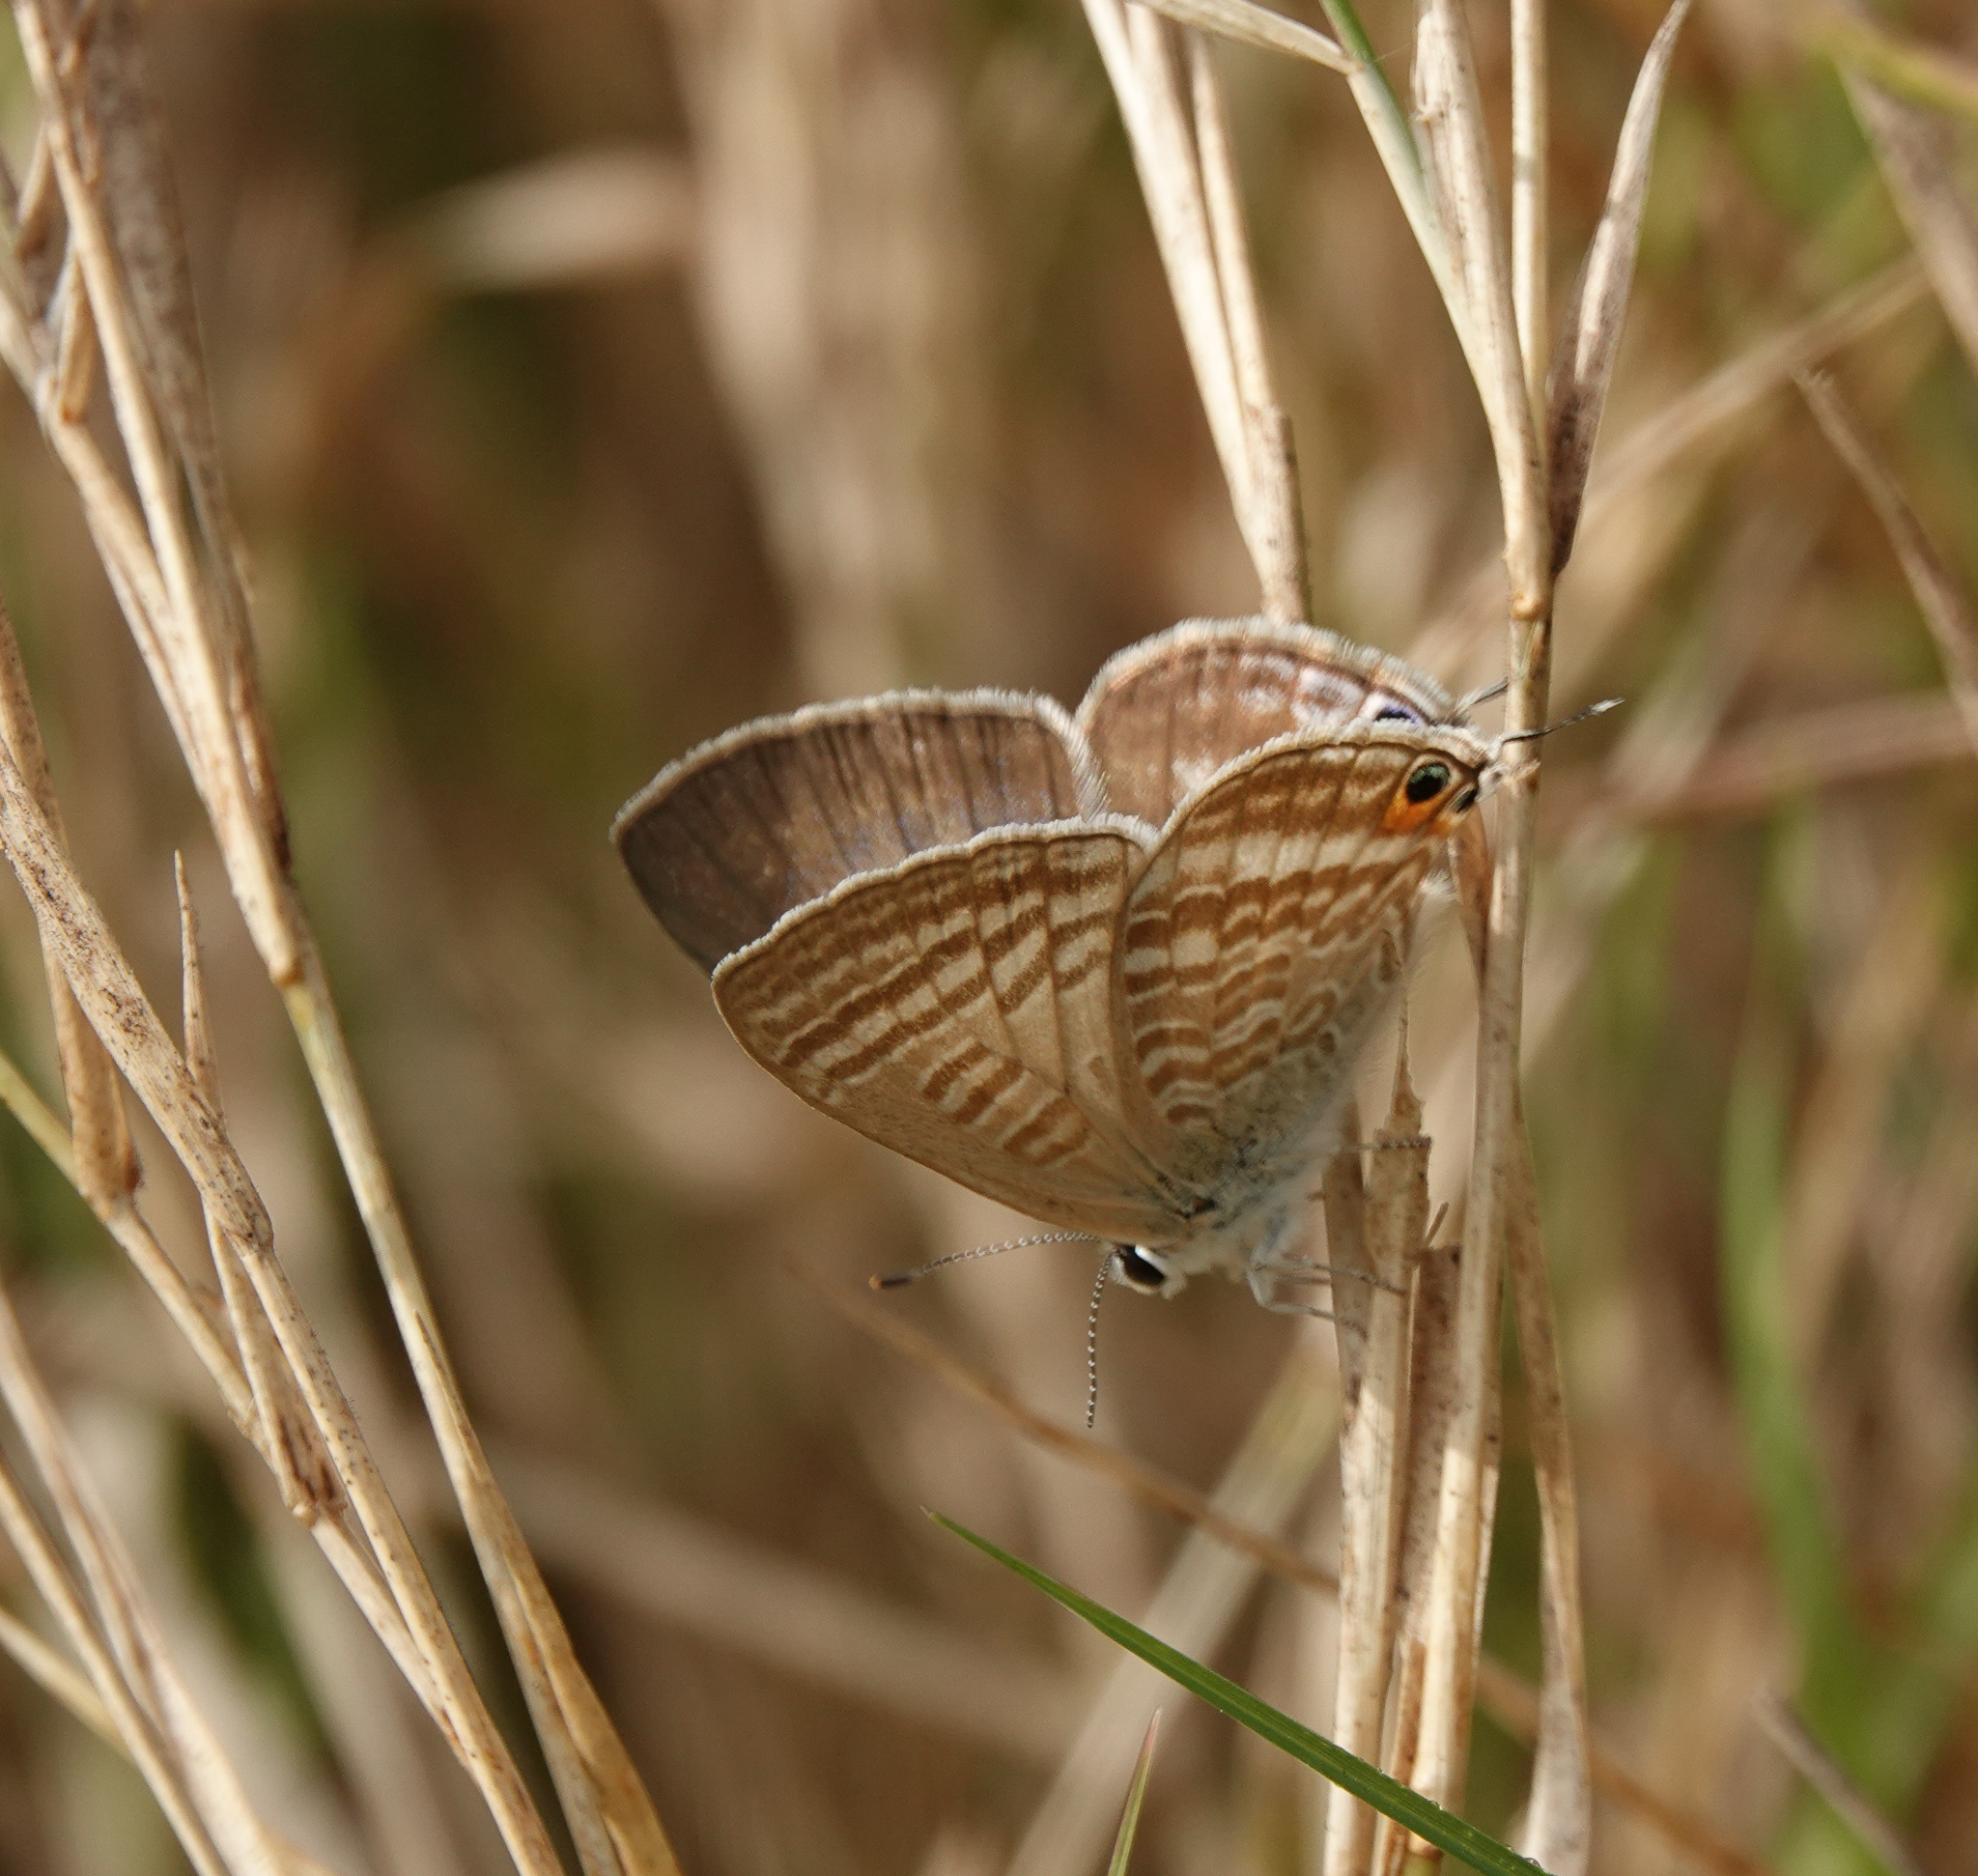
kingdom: Animalia
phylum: Arthropoda
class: Insecta
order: Lepidoptera
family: Lycaenidae
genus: Lampides
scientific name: Lampides boeticus
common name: Long-tailed blue
